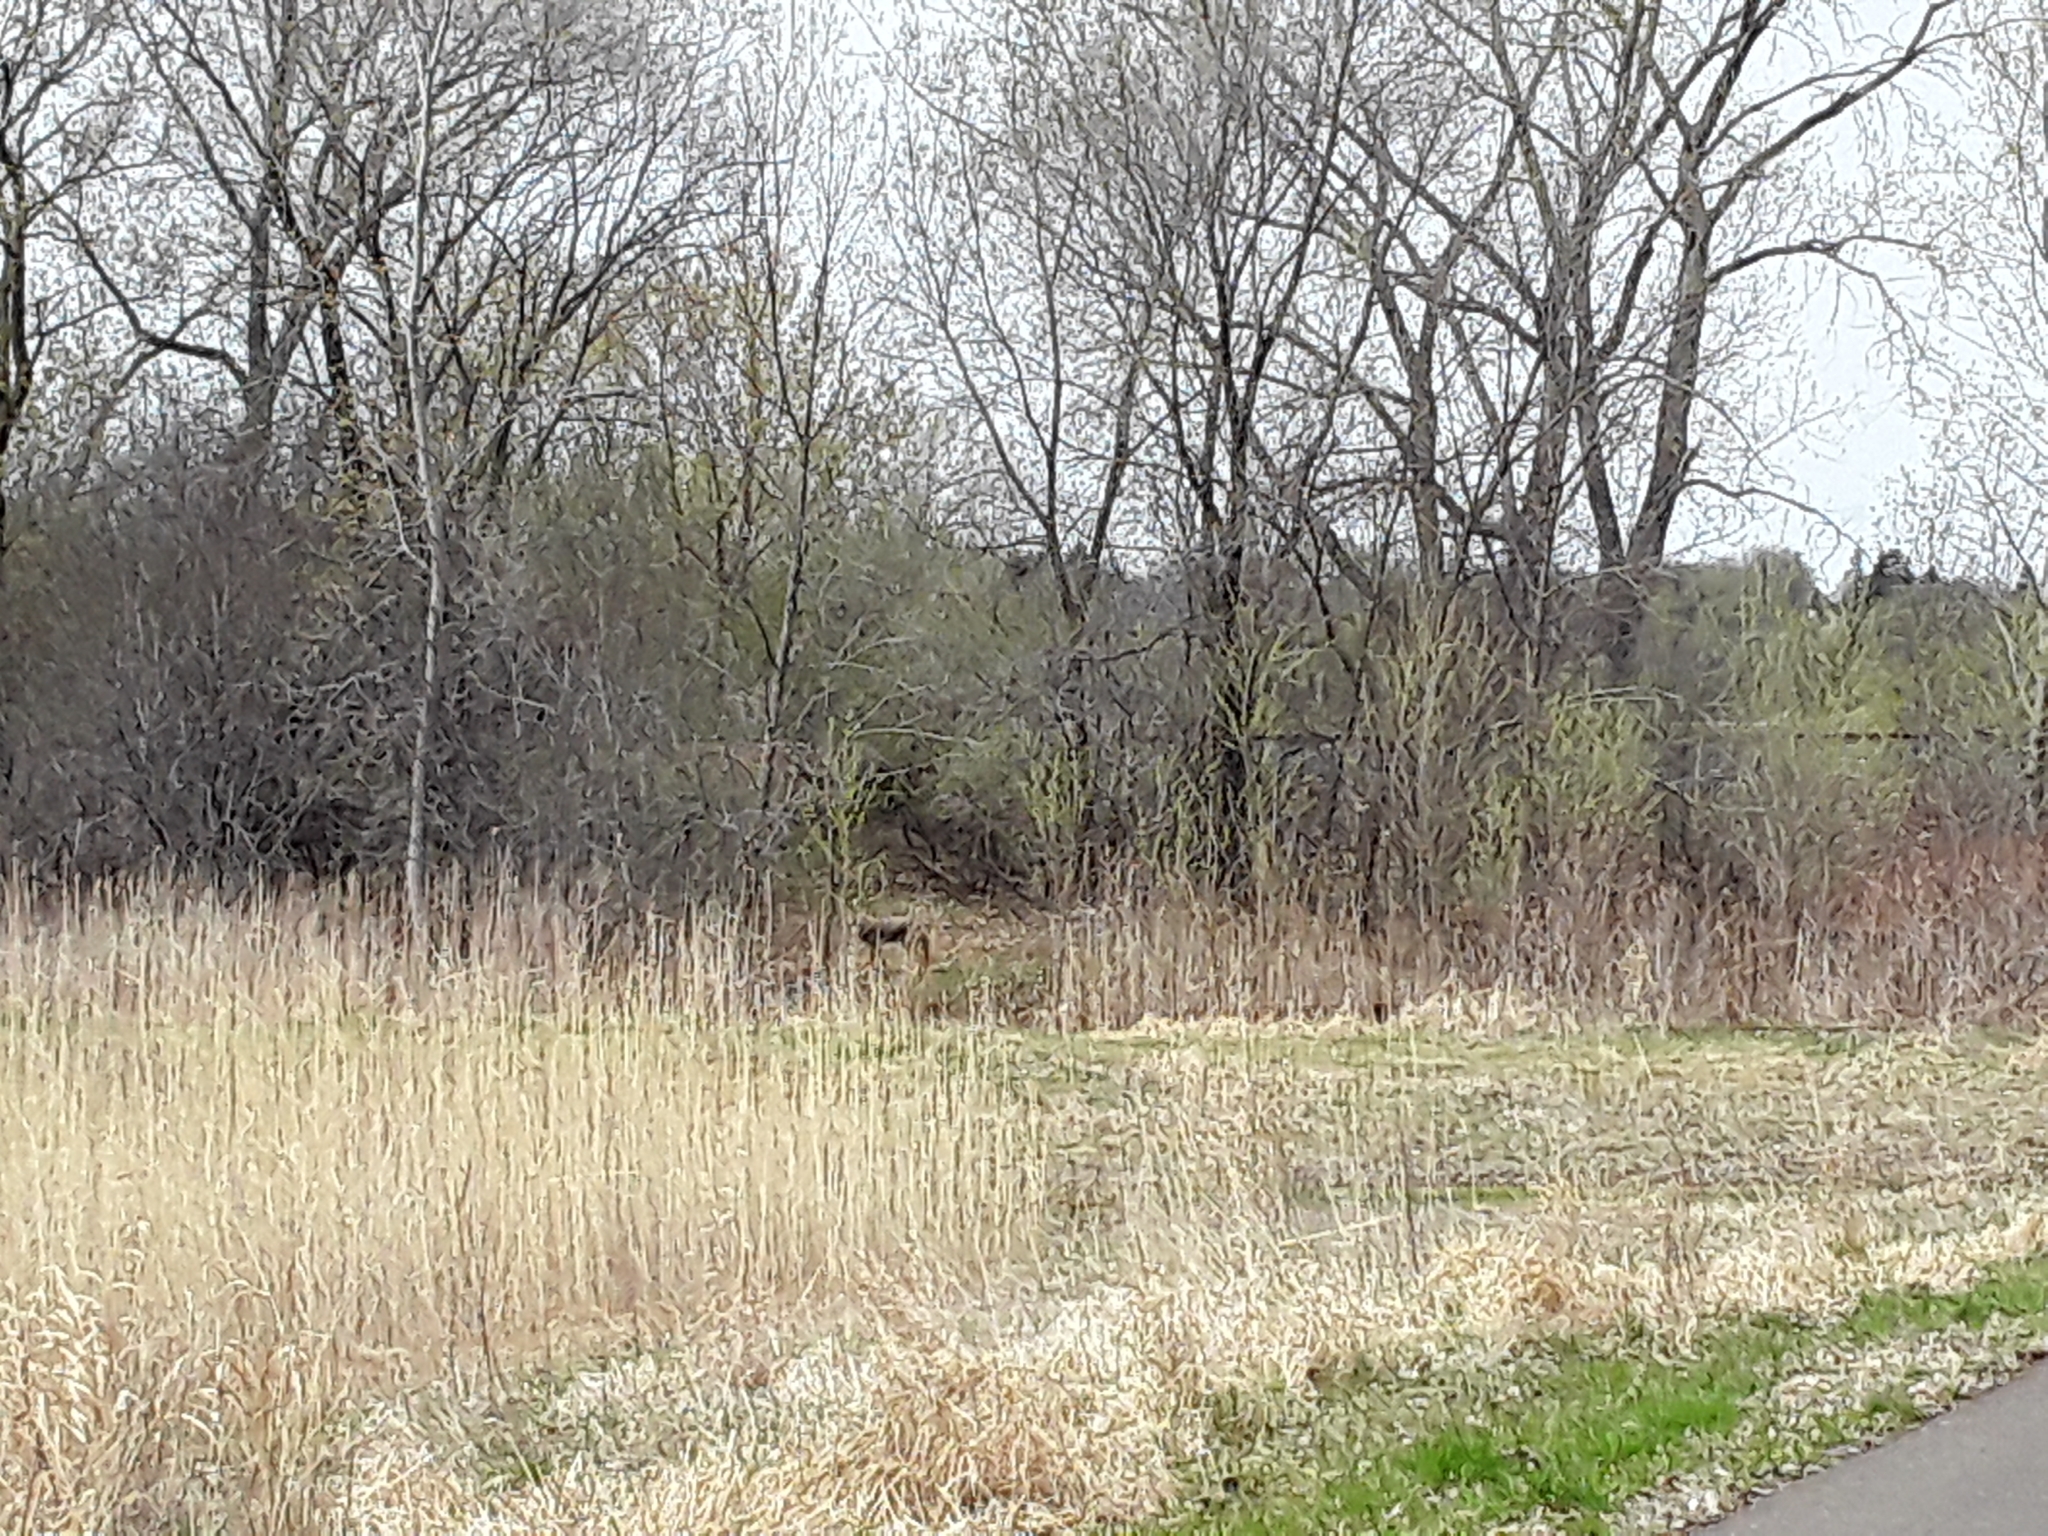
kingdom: Animalia
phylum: Chordata
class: Mammalia
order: Carnivora
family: Canidae
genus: Canis
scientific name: Canis latrans
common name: Coyote
